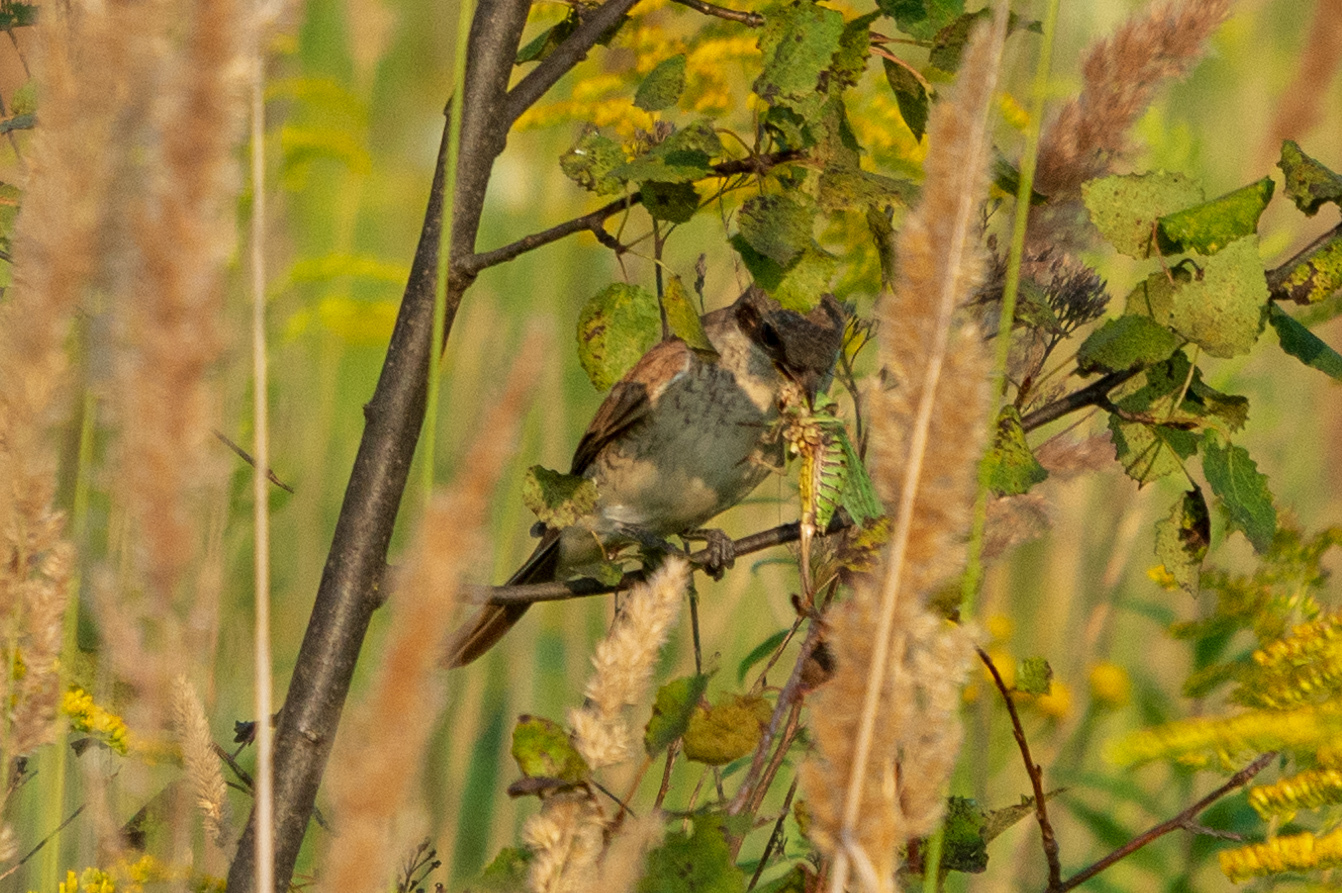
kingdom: Animalia
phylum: Chordata
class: Aves
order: Passeriformes
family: Laniidae
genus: Lanius
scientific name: Lanius collurio
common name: Red-backed shrike
